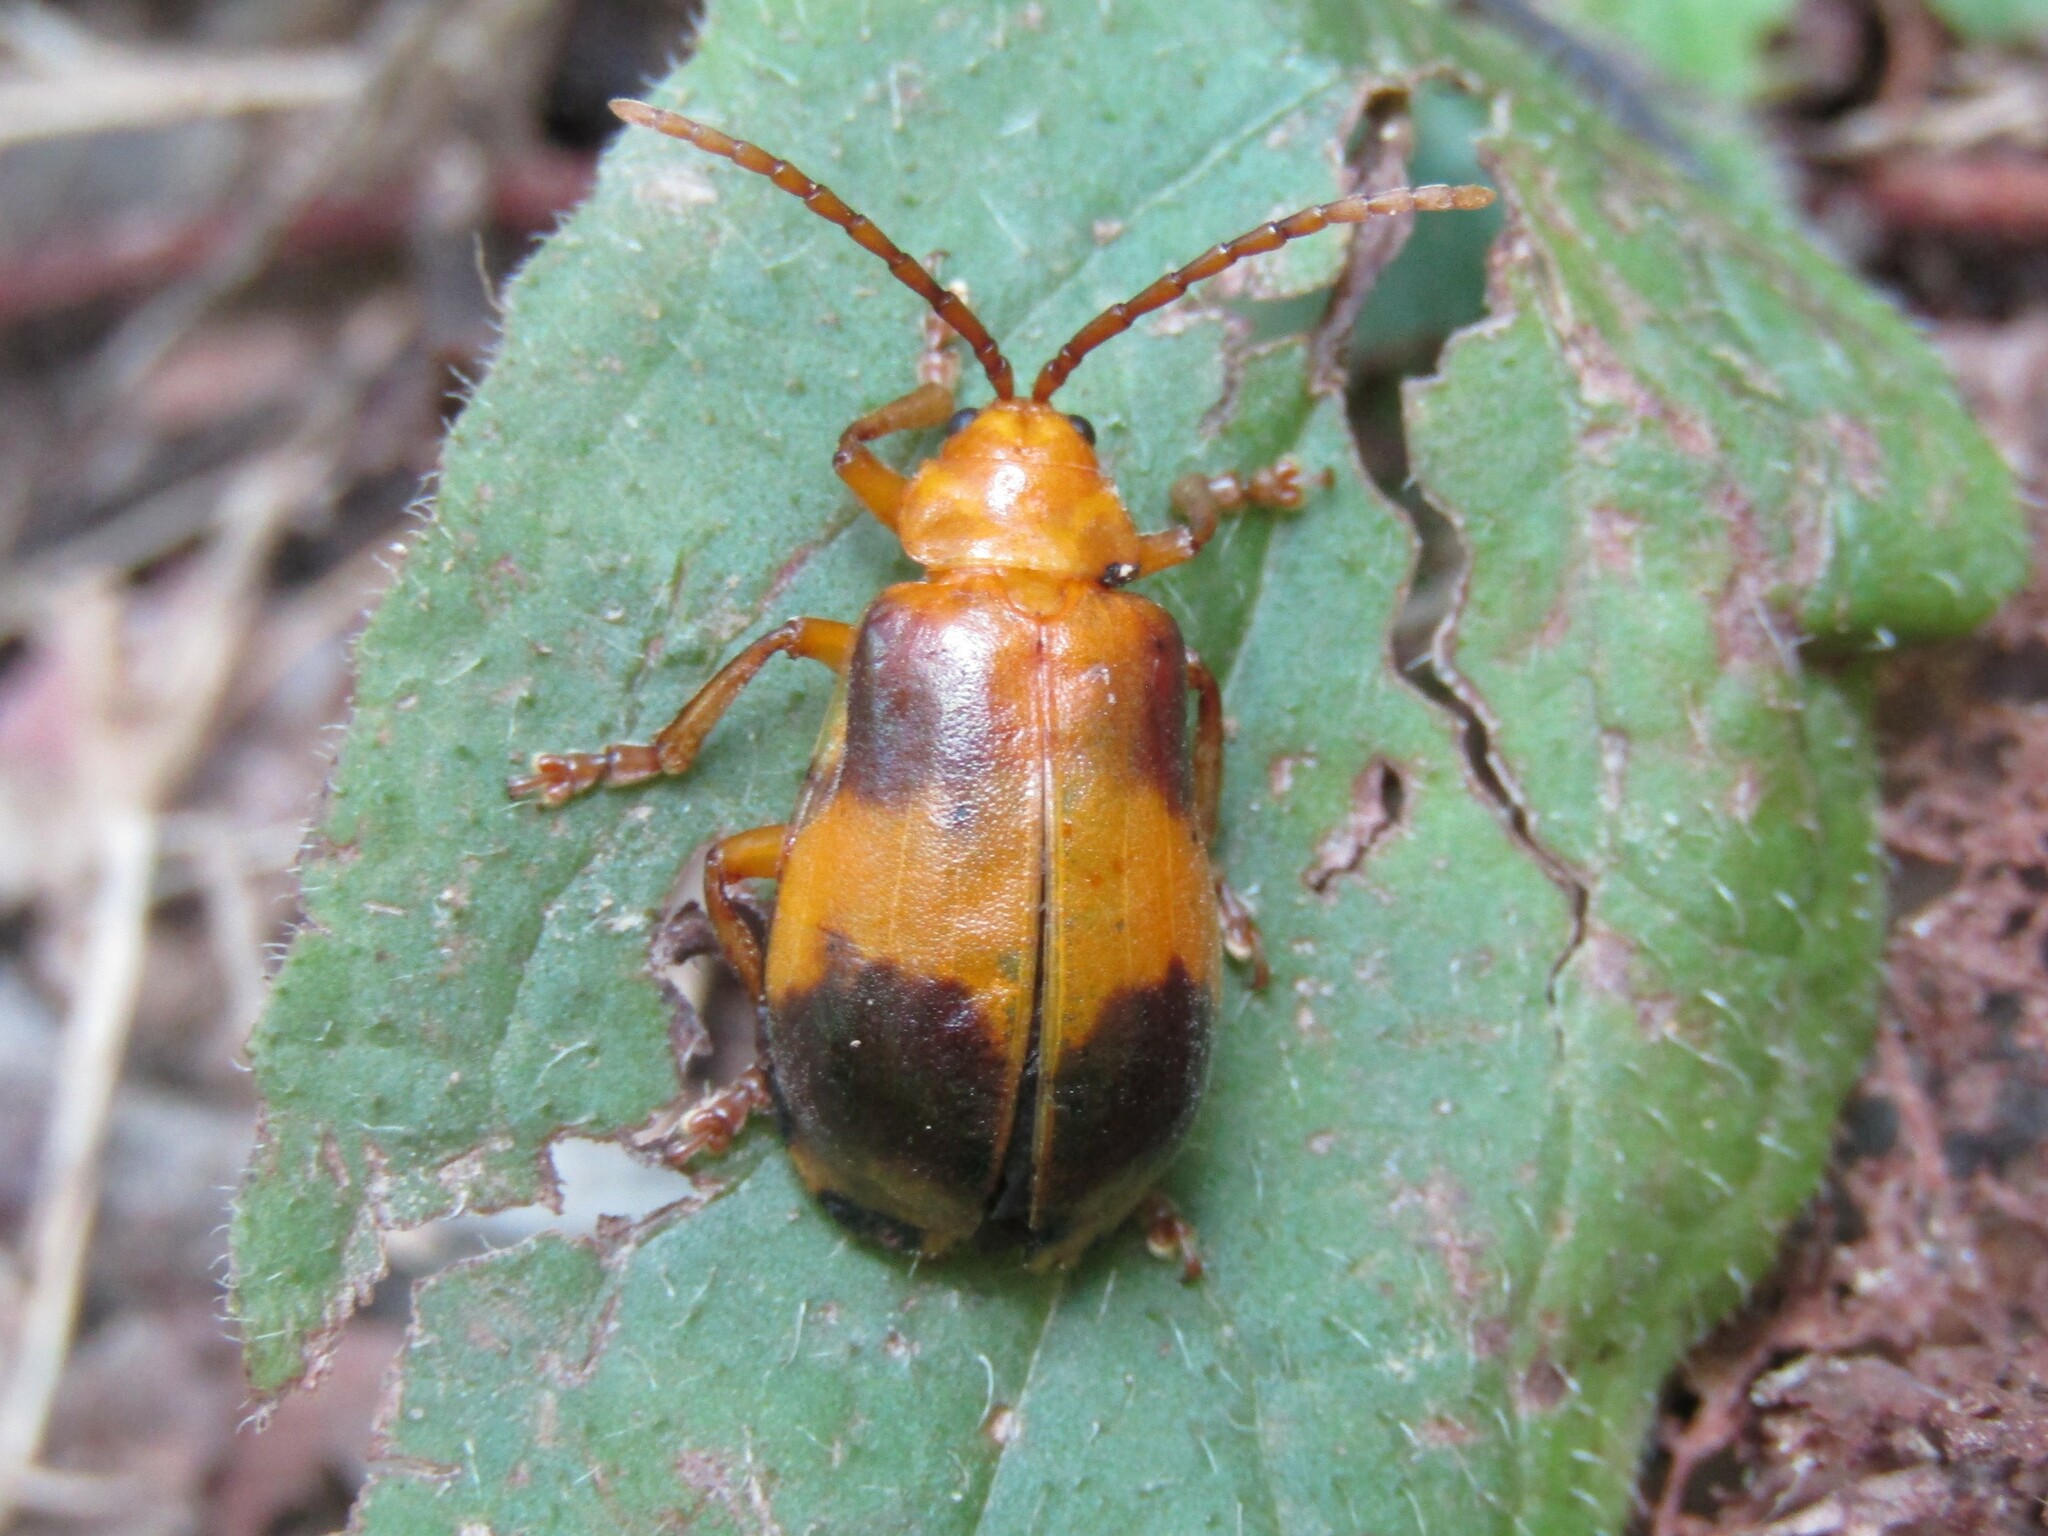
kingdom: Animalia
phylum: Arthropoda
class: Insecta
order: Coleoptera
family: Chrysomelidae
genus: Monocesta
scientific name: Monocesta coryli
